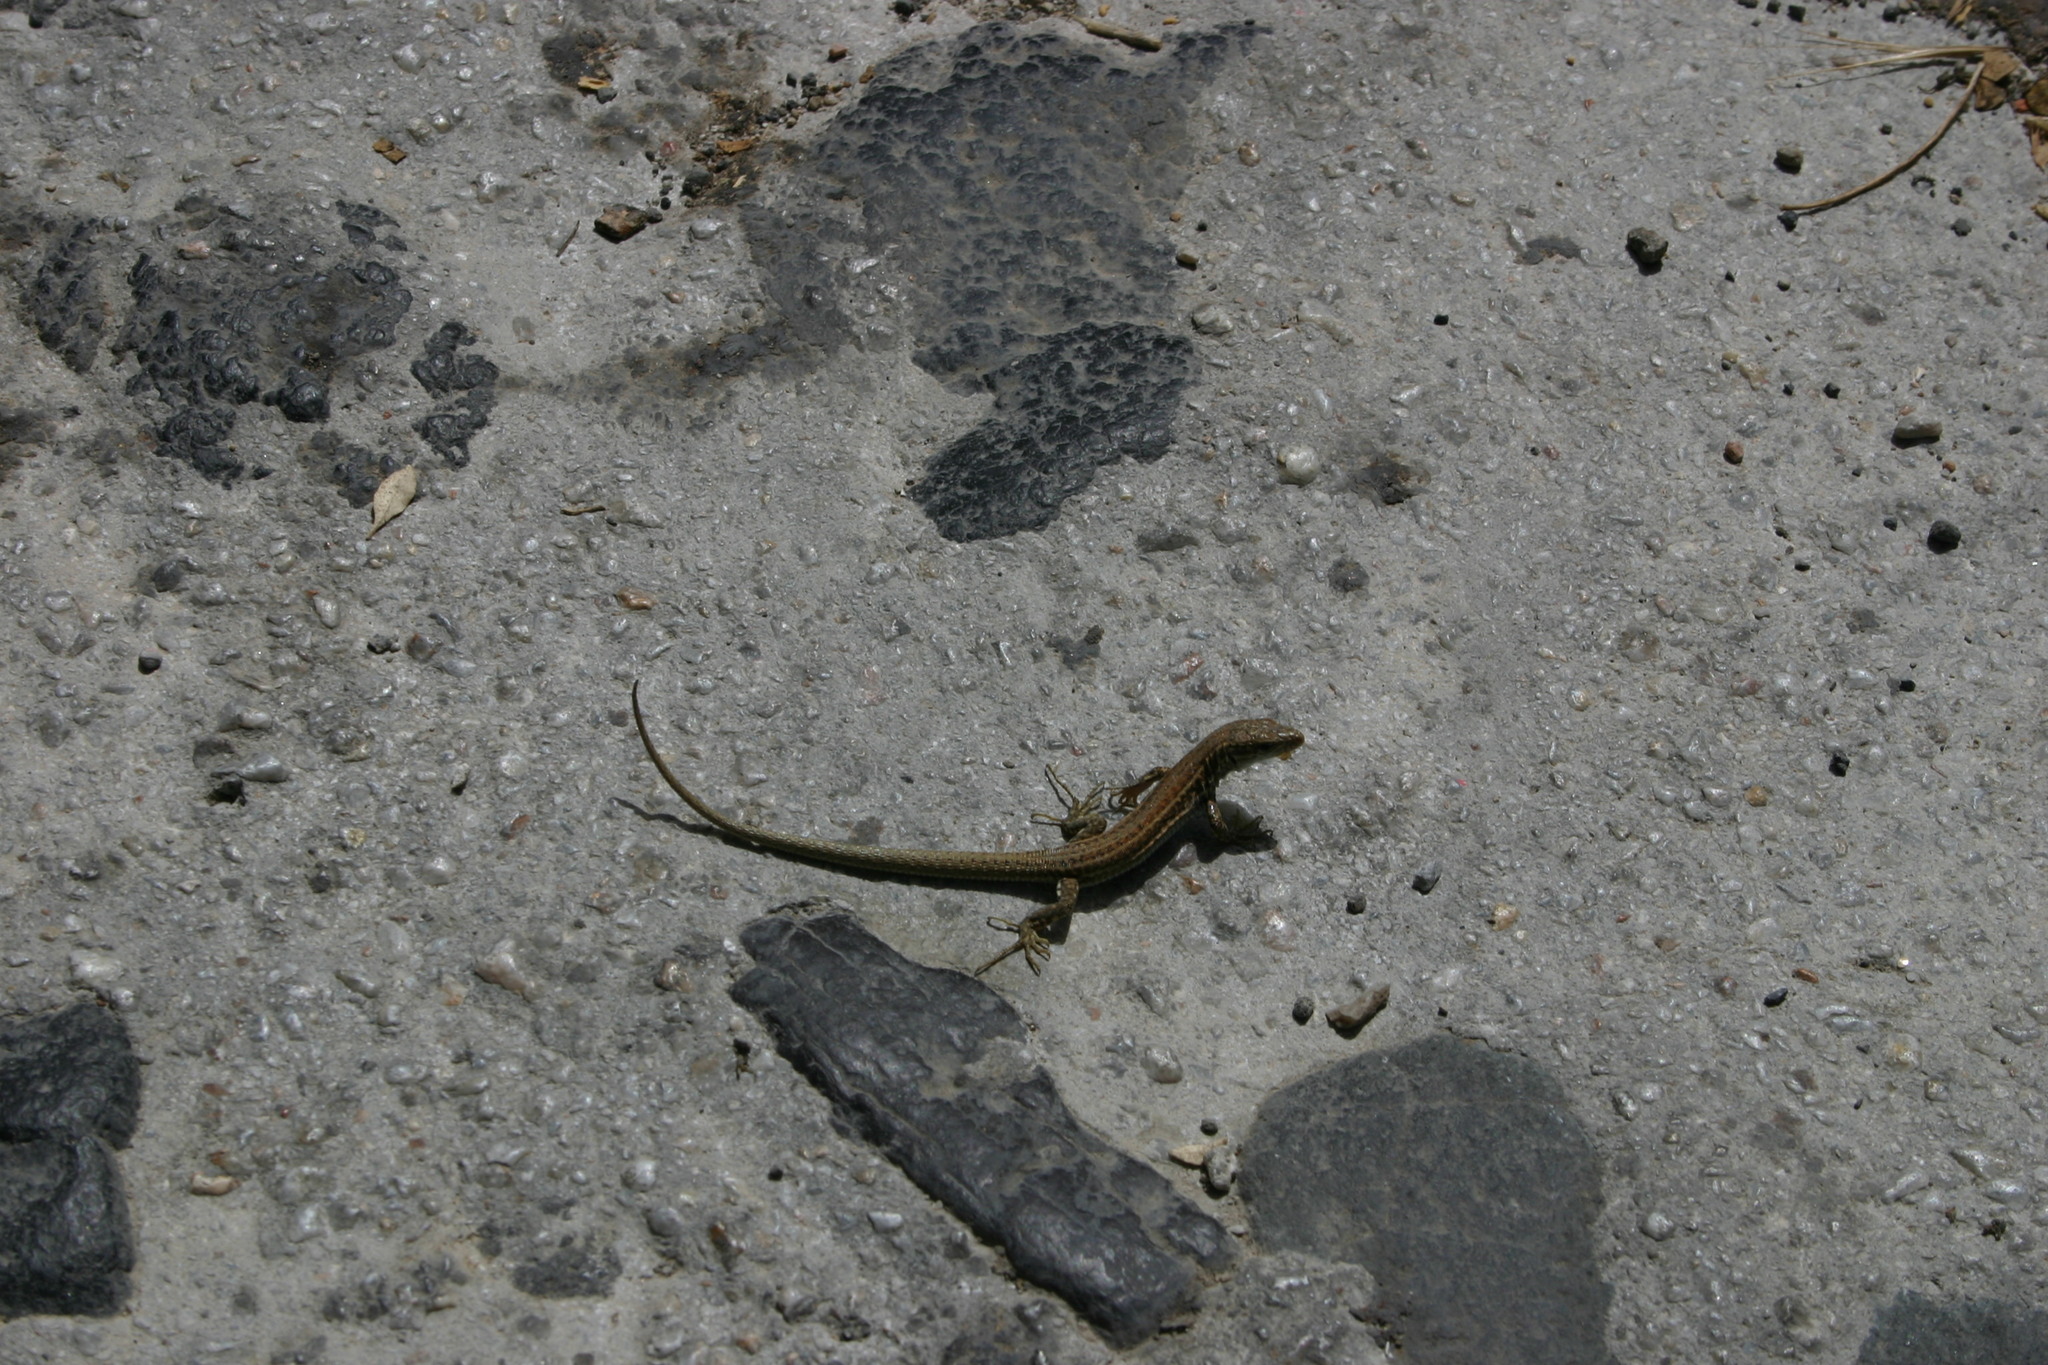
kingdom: Animalia
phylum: Chordata
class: Squamata
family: Lacertidae
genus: Podarcis
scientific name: Podarcis erhardii
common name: Erhard's wall lizard
